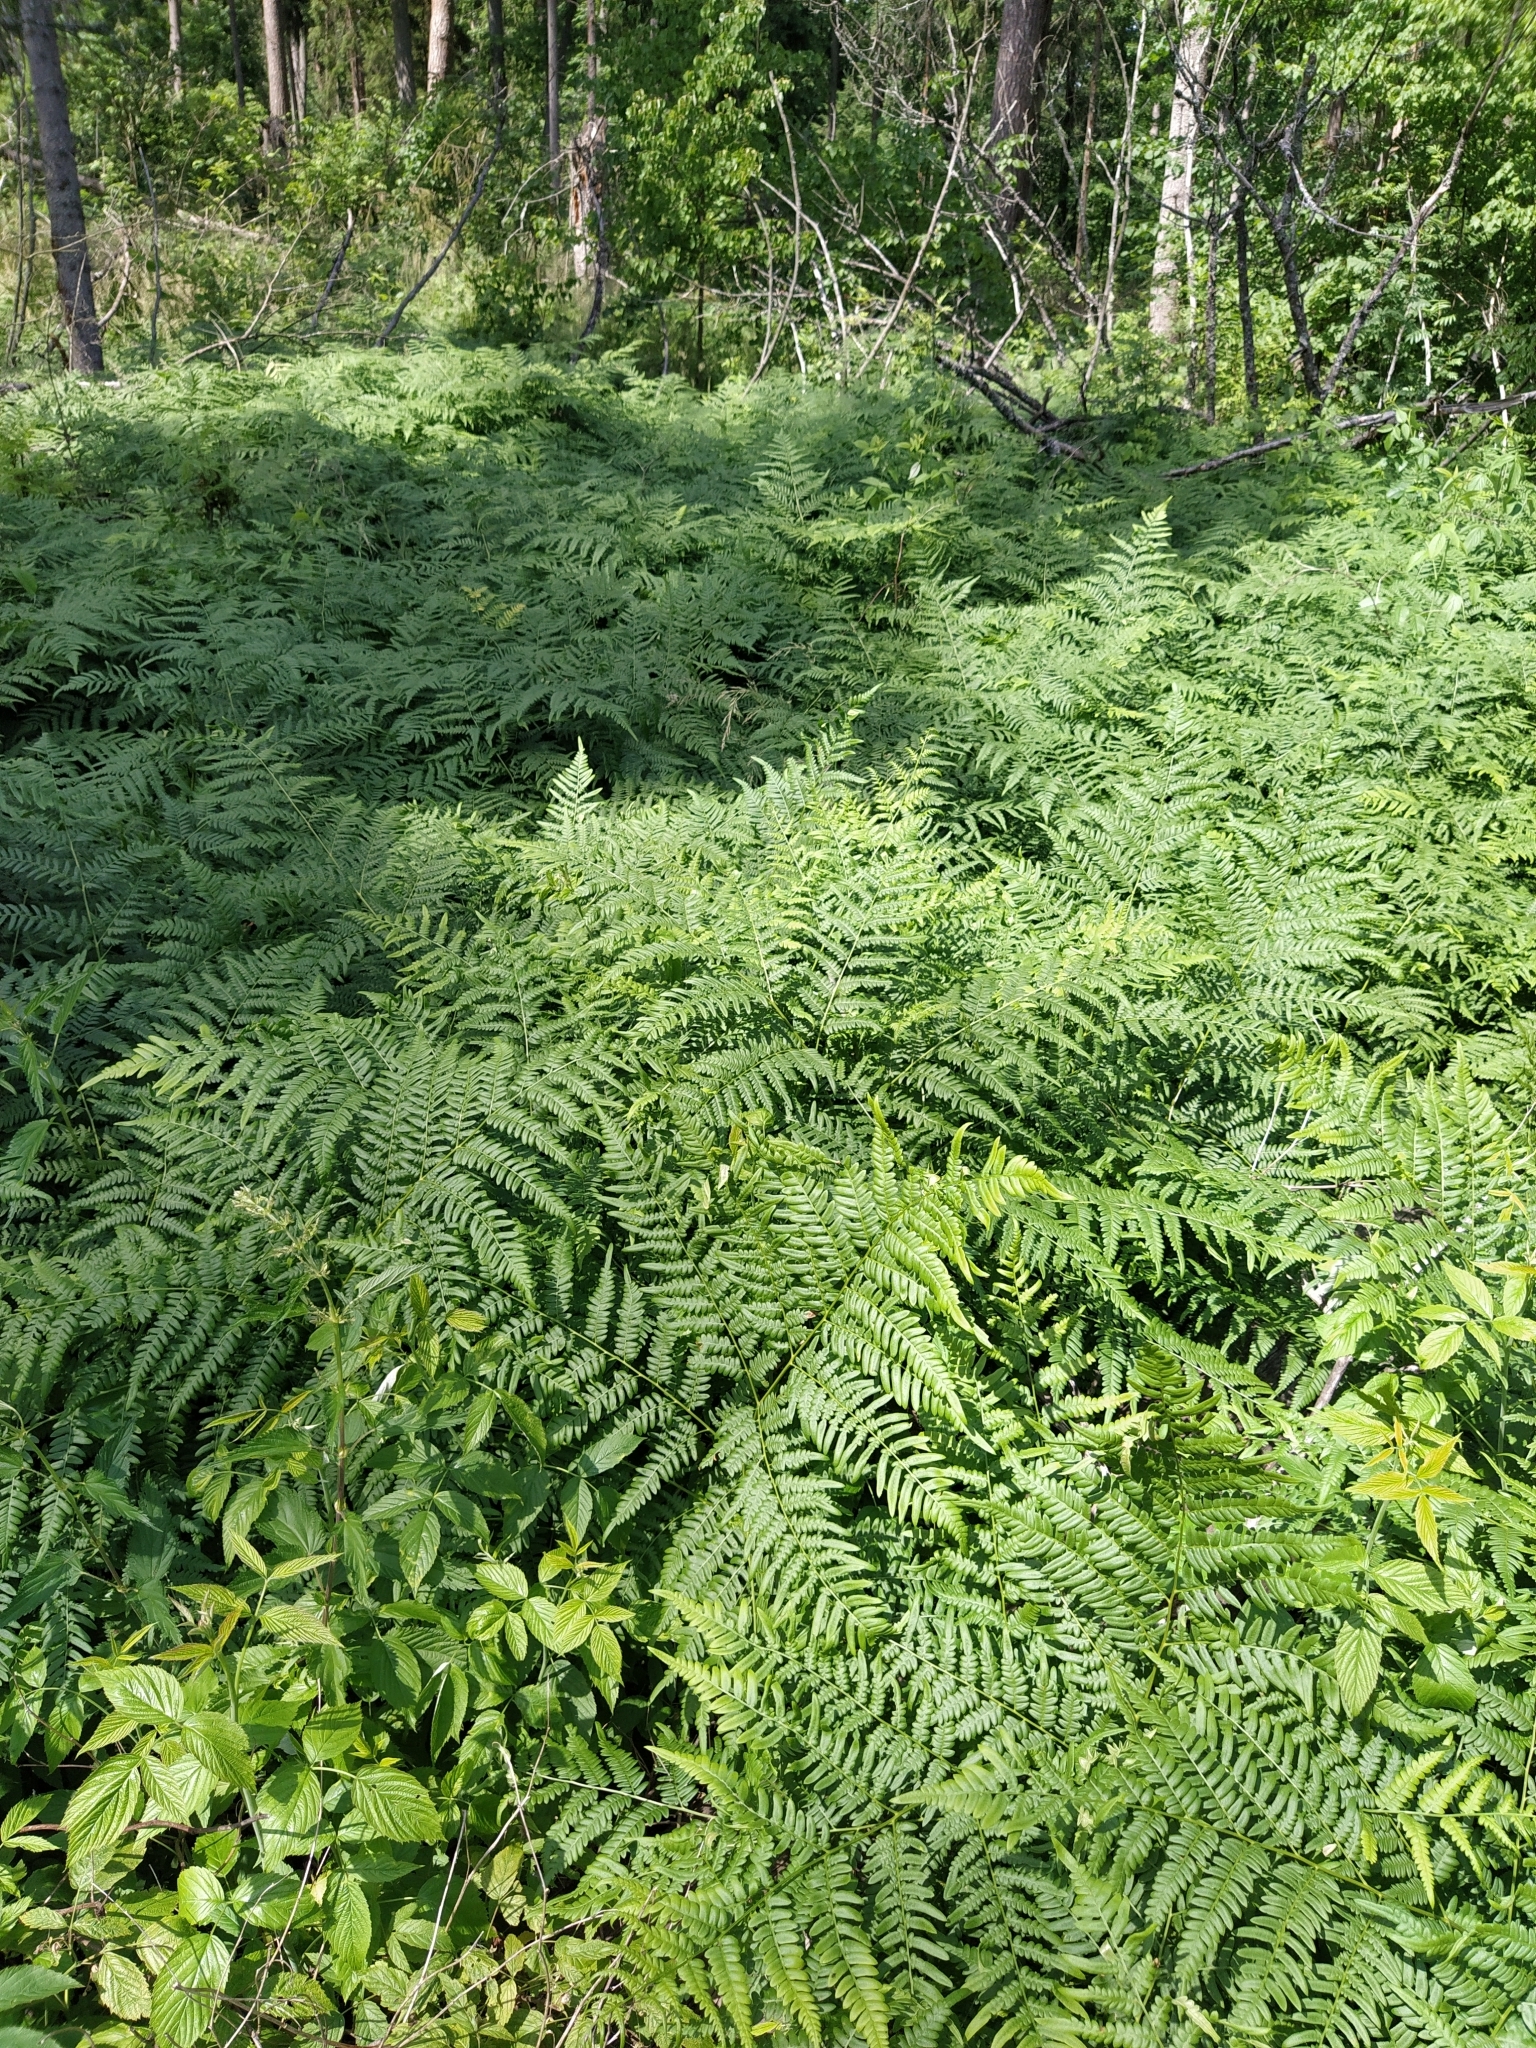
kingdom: Plantae
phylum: Tracheophyta
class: Polypodiopsida
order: Polypodiales
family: Dennstaedtiaceae
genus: Pteridium
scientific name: Pteridium aquilinum
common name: Bracken
